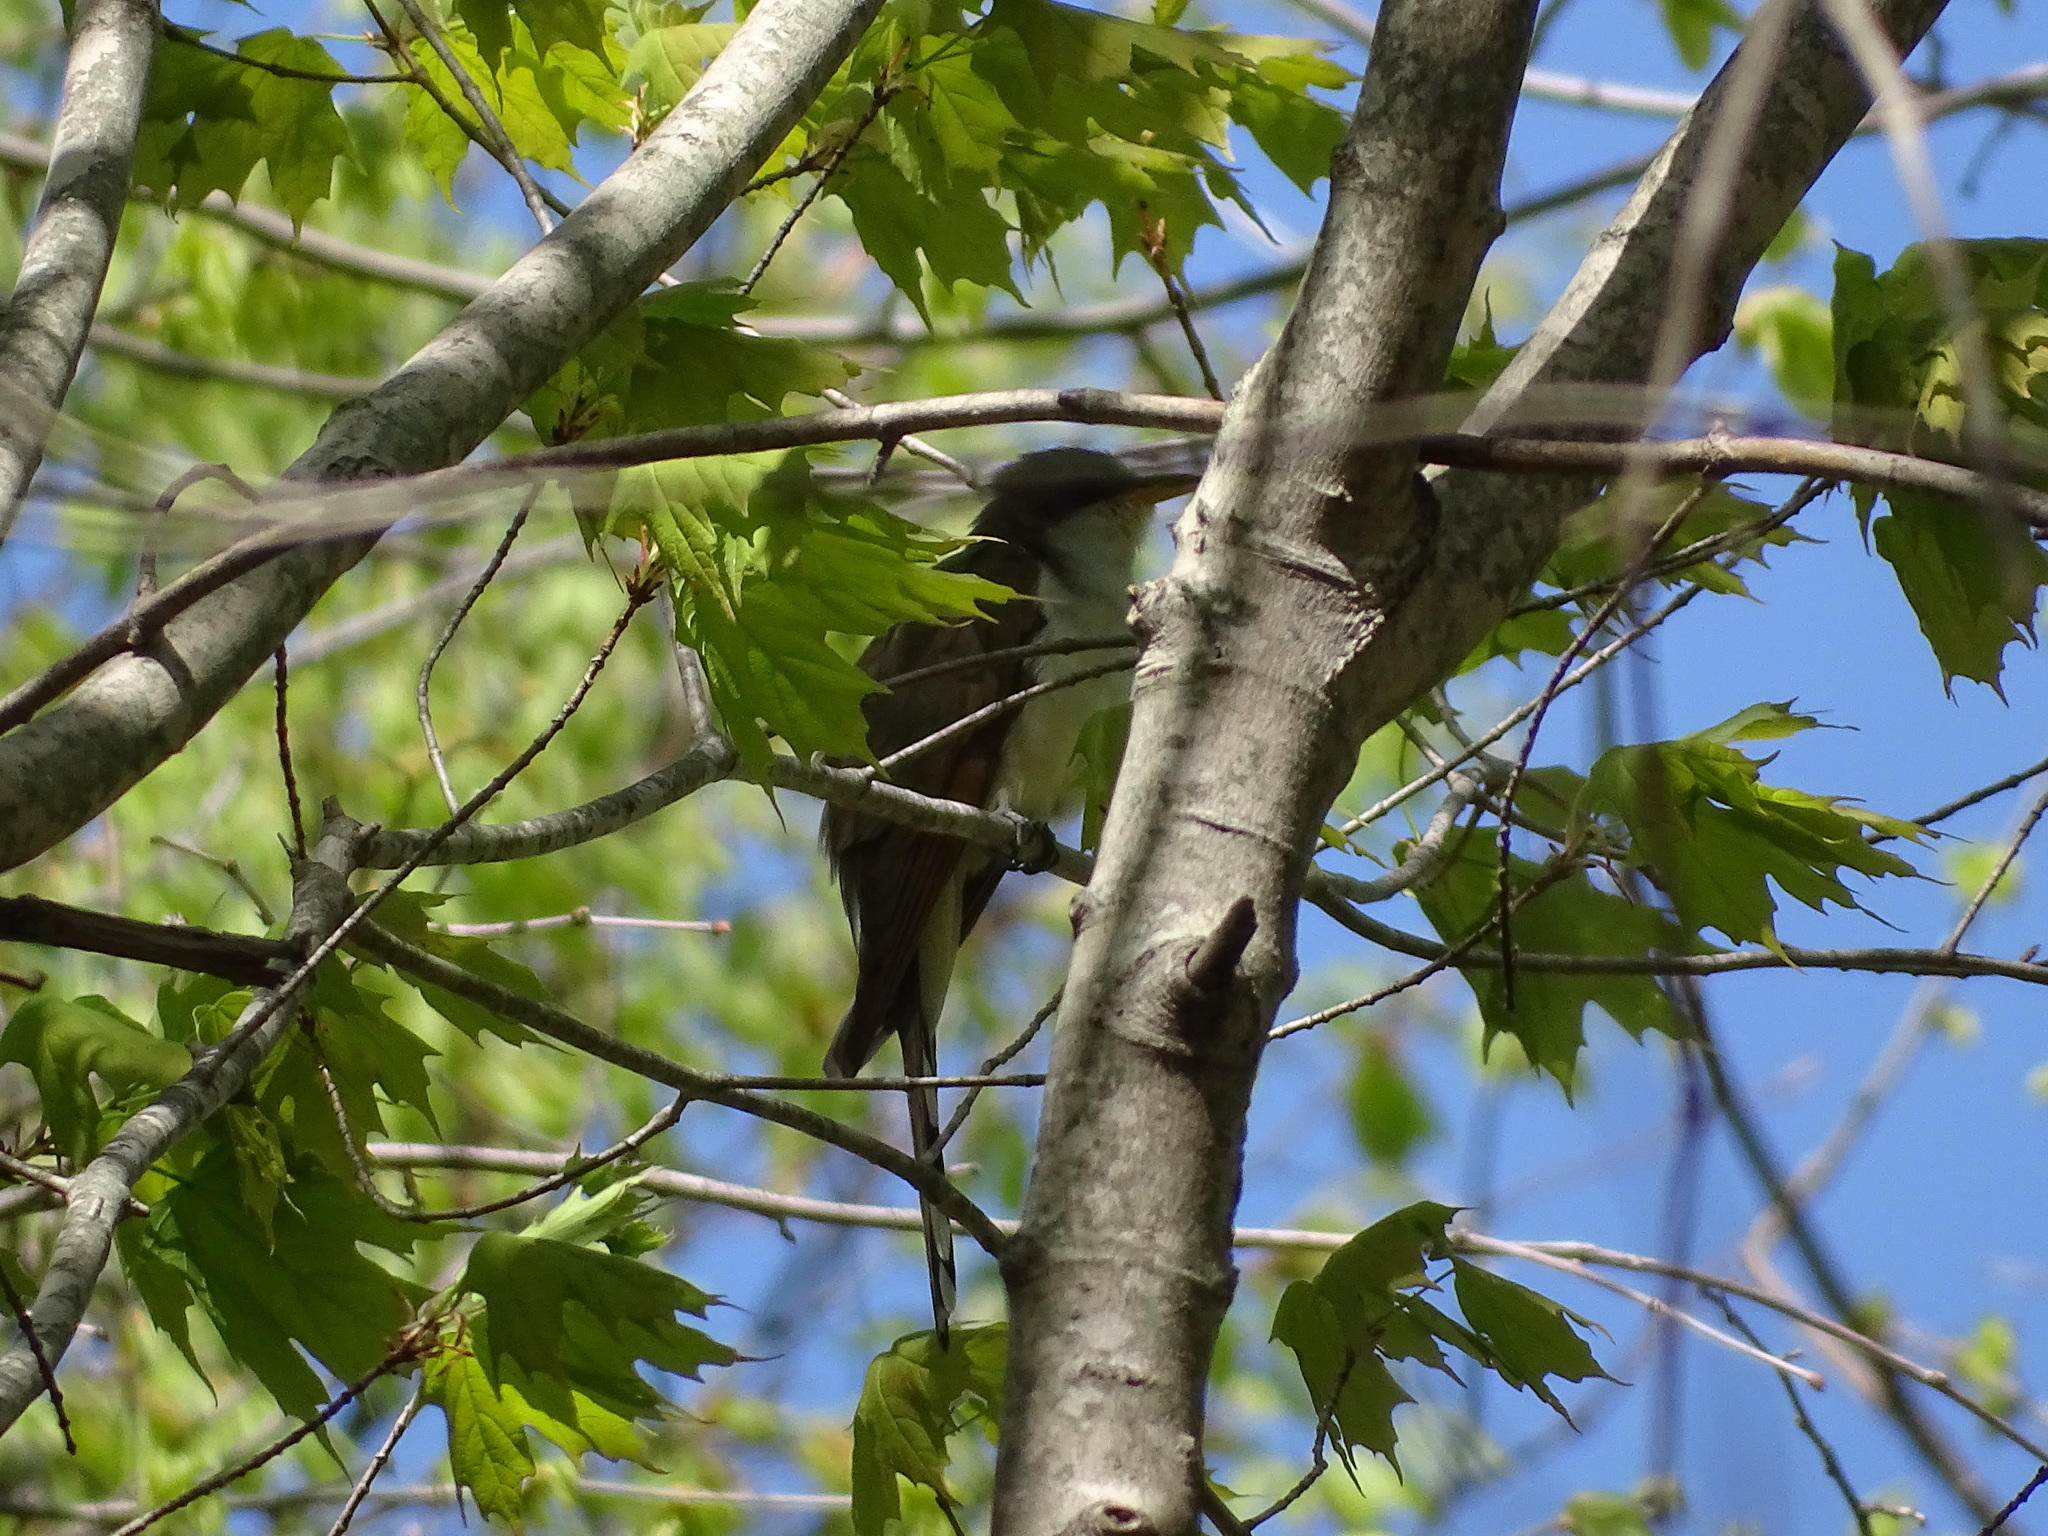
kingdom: Animalia
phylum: Chordata
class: Aves
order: Cuculiformes
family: Cuculidae
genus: Coccyzus
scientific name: Coccyzus americanus
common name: Yellow-billed cuckoo
